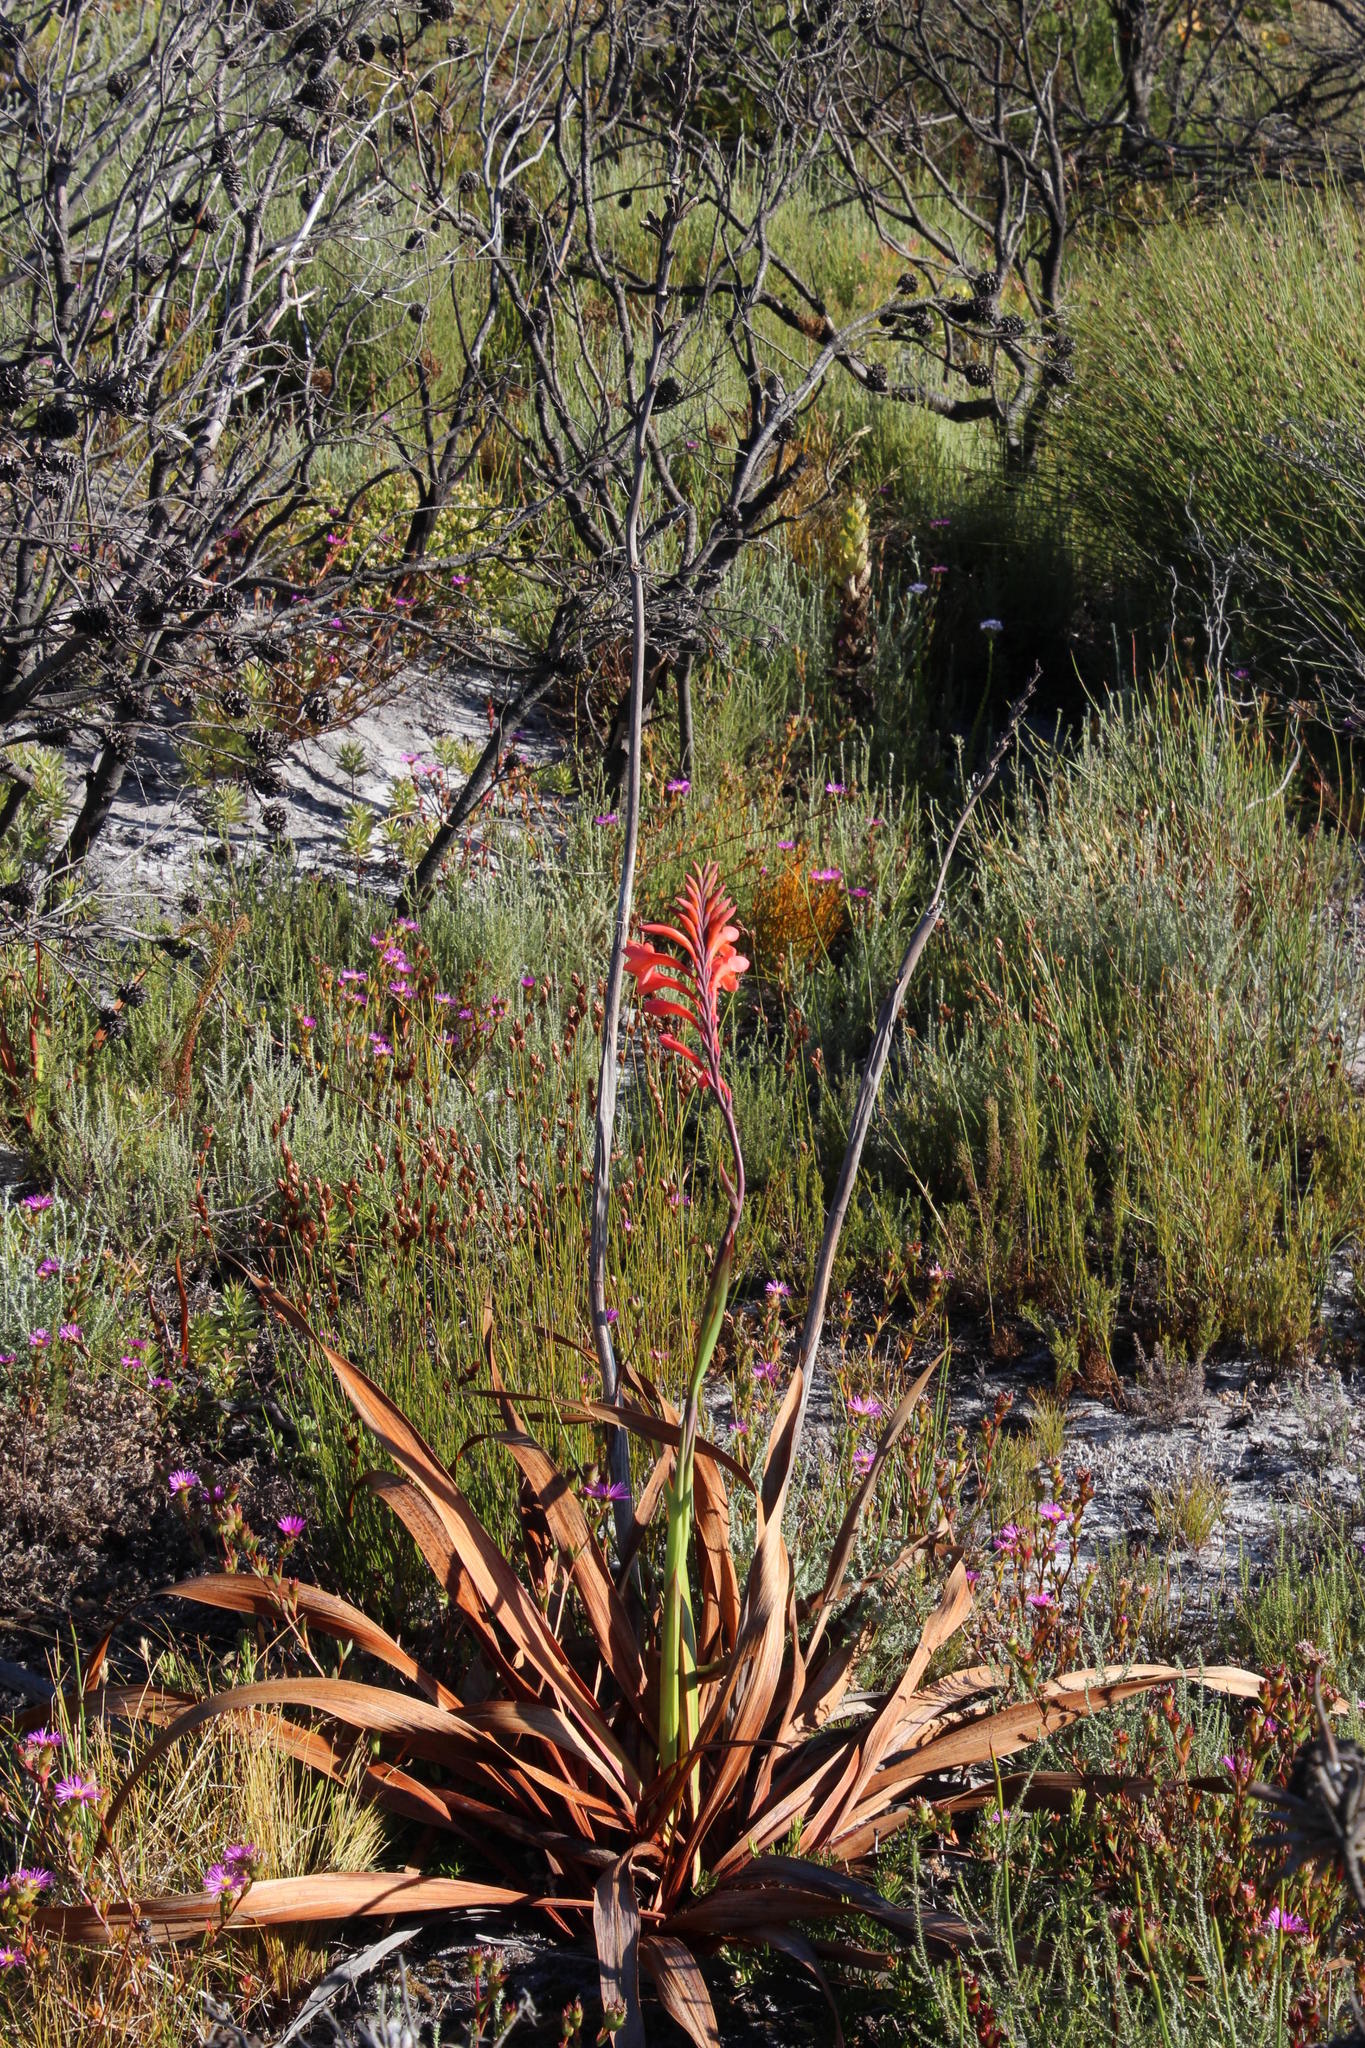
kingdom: Plantae
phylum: Tracheophyta
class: Liliopsida
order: Asparagales
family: Iridaceae
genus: Watsonia
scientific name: Watsonia tabularis
